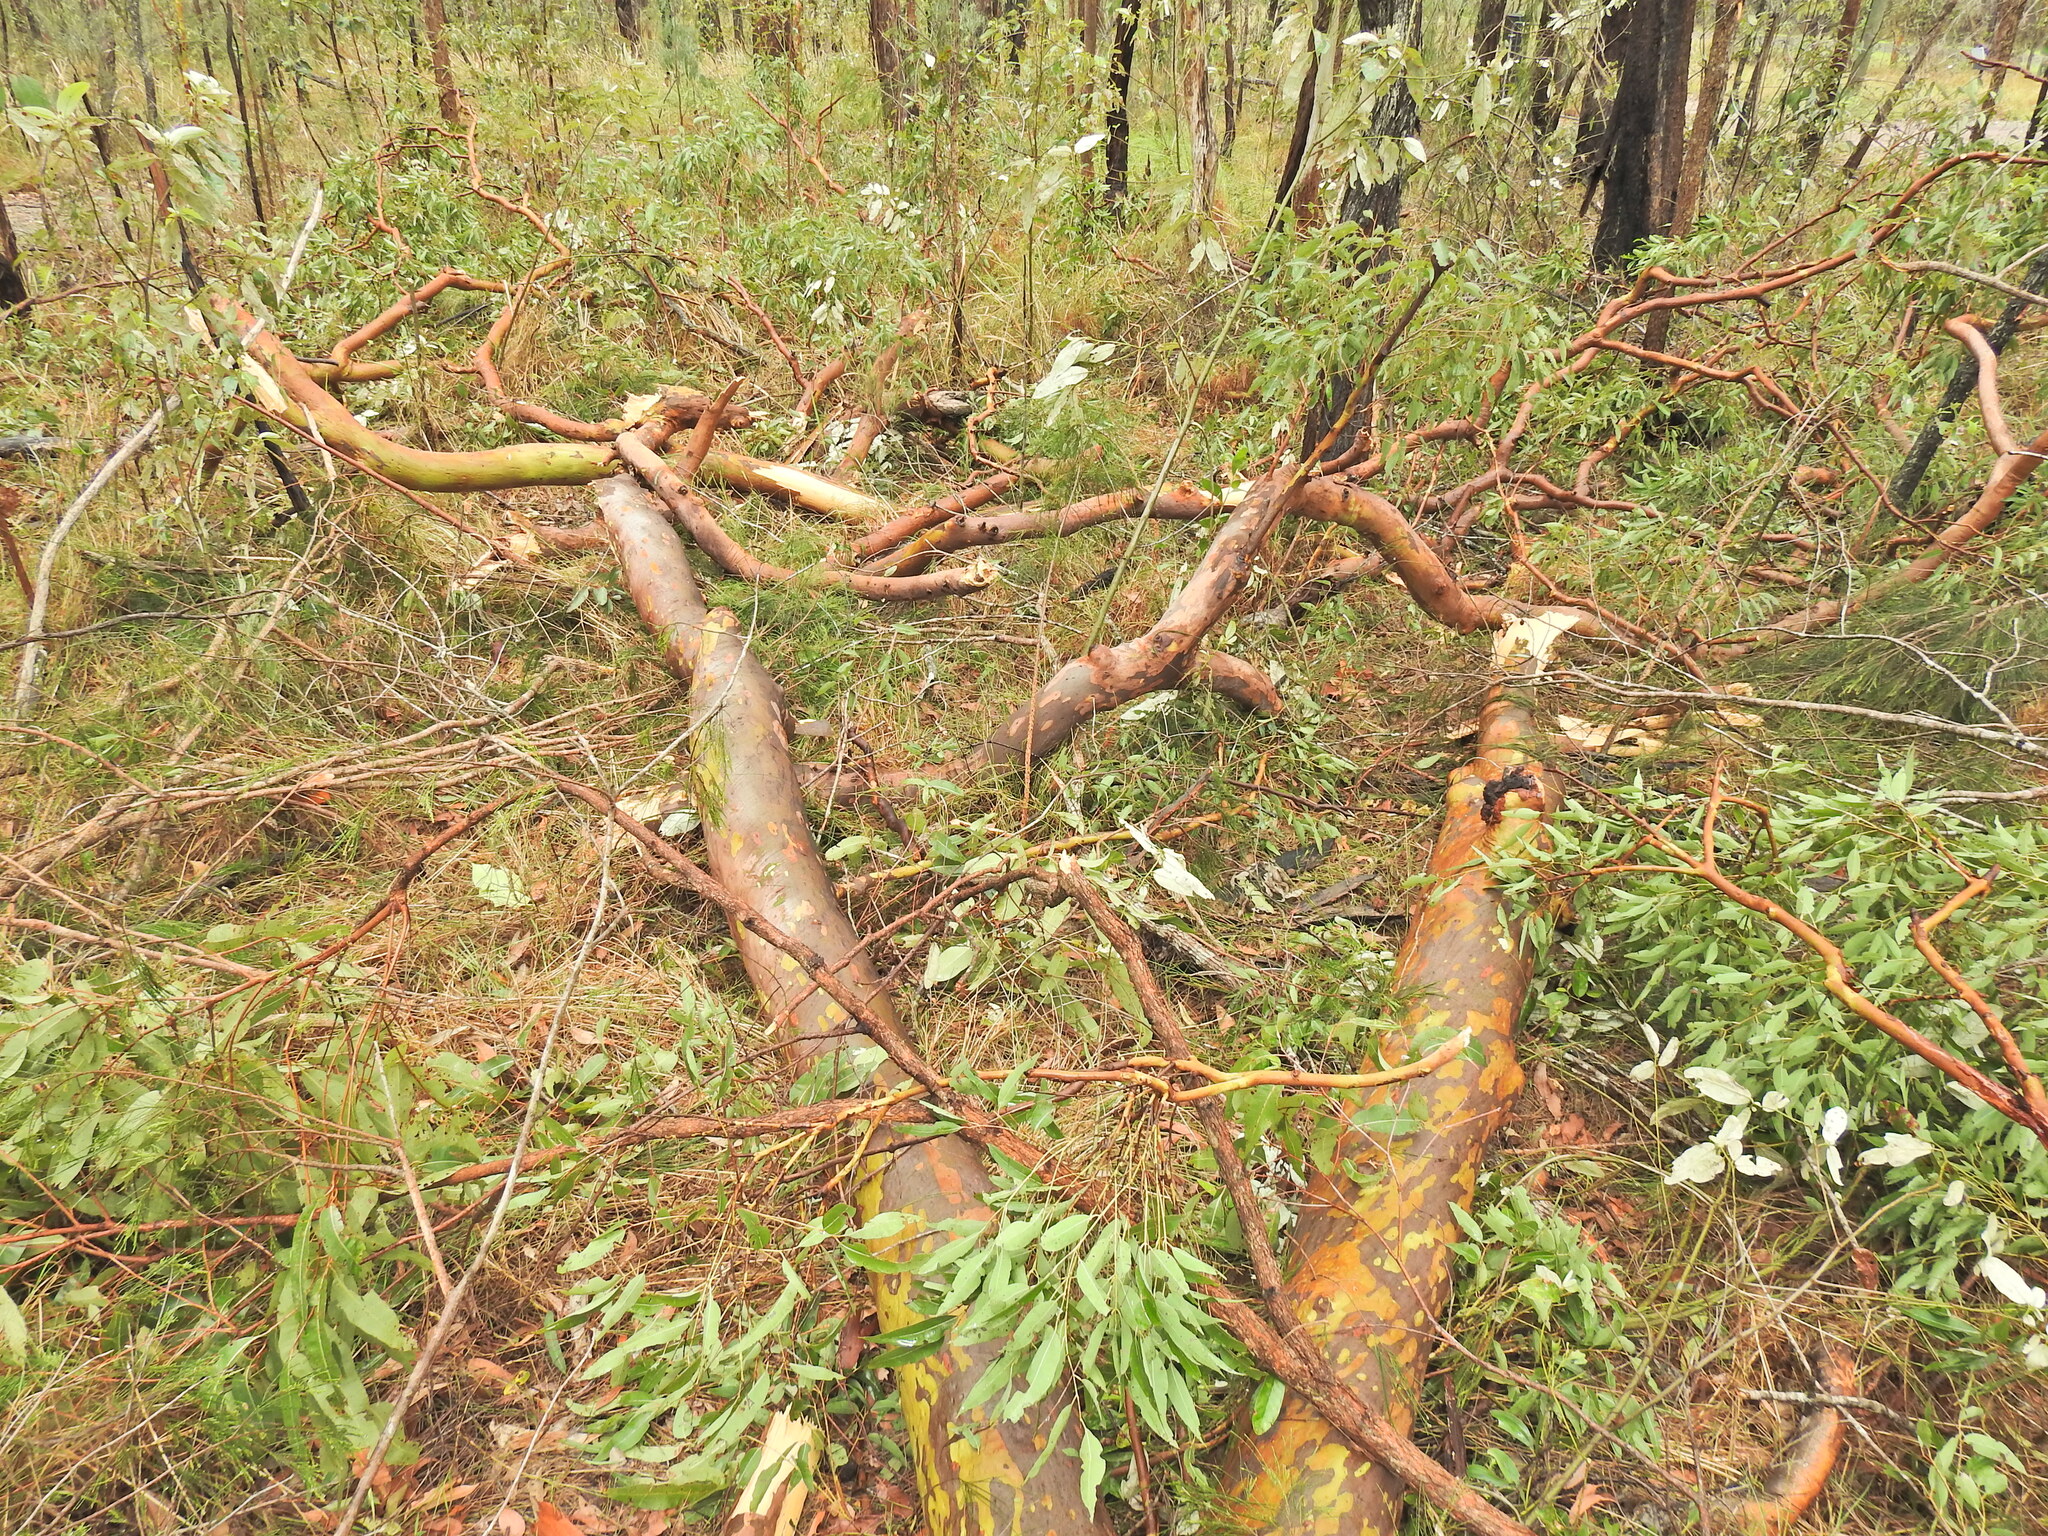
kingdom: Plantae
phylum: Tracheophyta
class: Magnoliopsida
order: Myrtales
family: Myrtaceae
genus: Angophora
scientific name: Angophora leiocarpa
